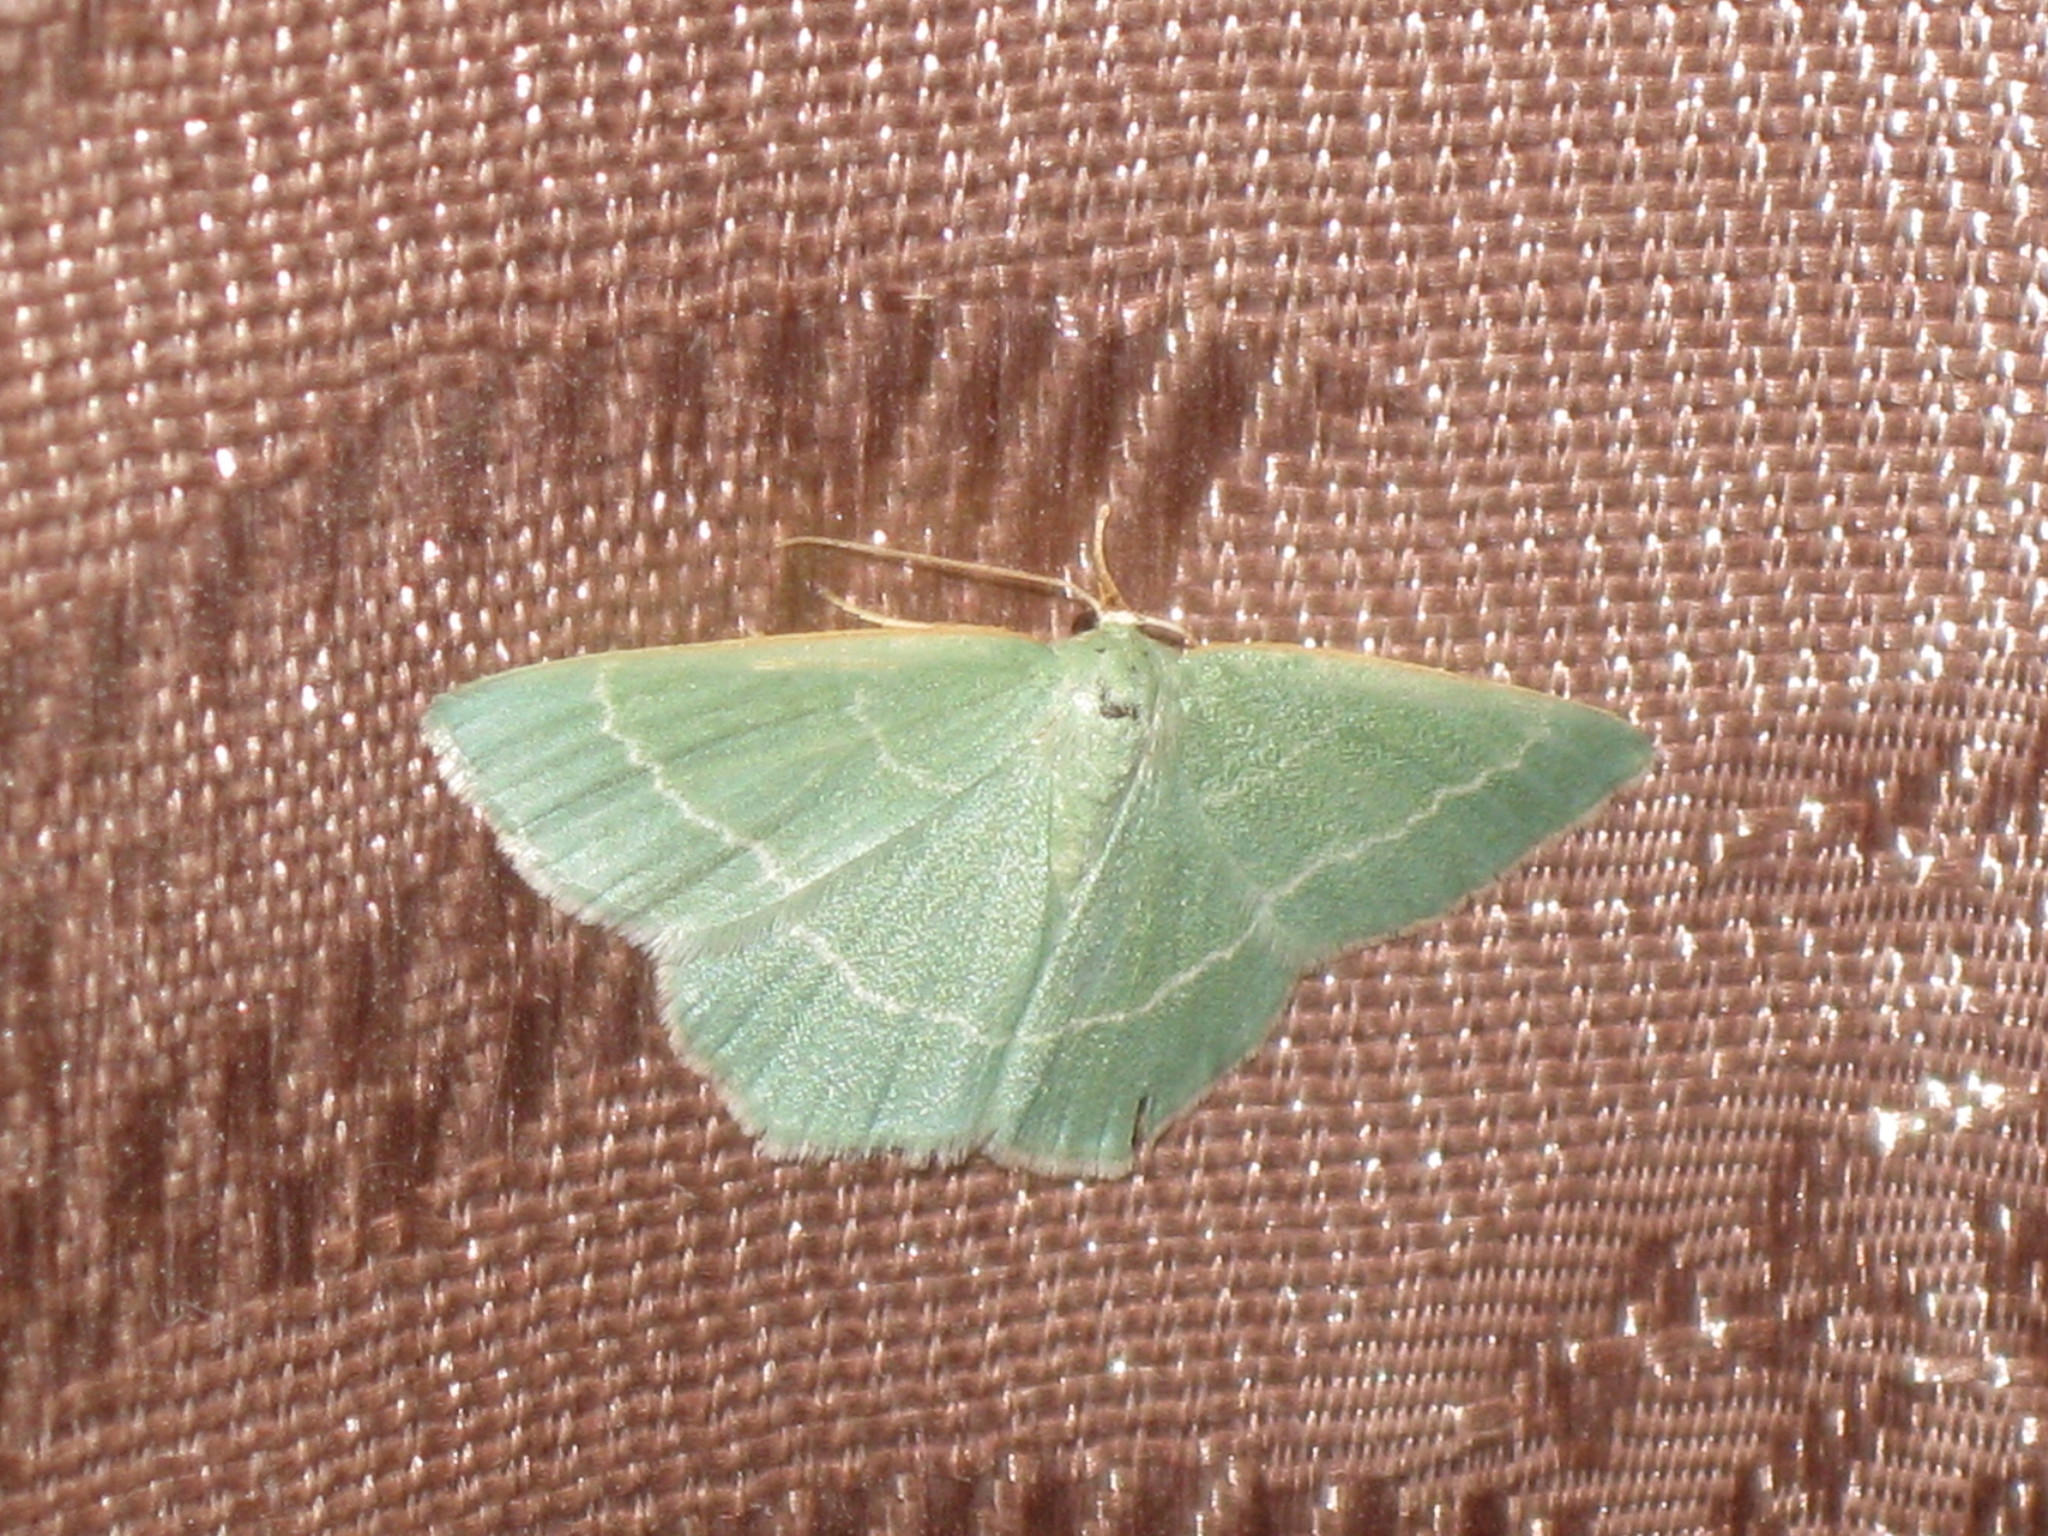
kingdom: Animalia
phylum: Arthropoda
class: Insecta
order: Lepidoptera
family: Geometridae
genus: Chlorissa
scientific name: Chlorissa cloraria
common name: Southern grass emerald
